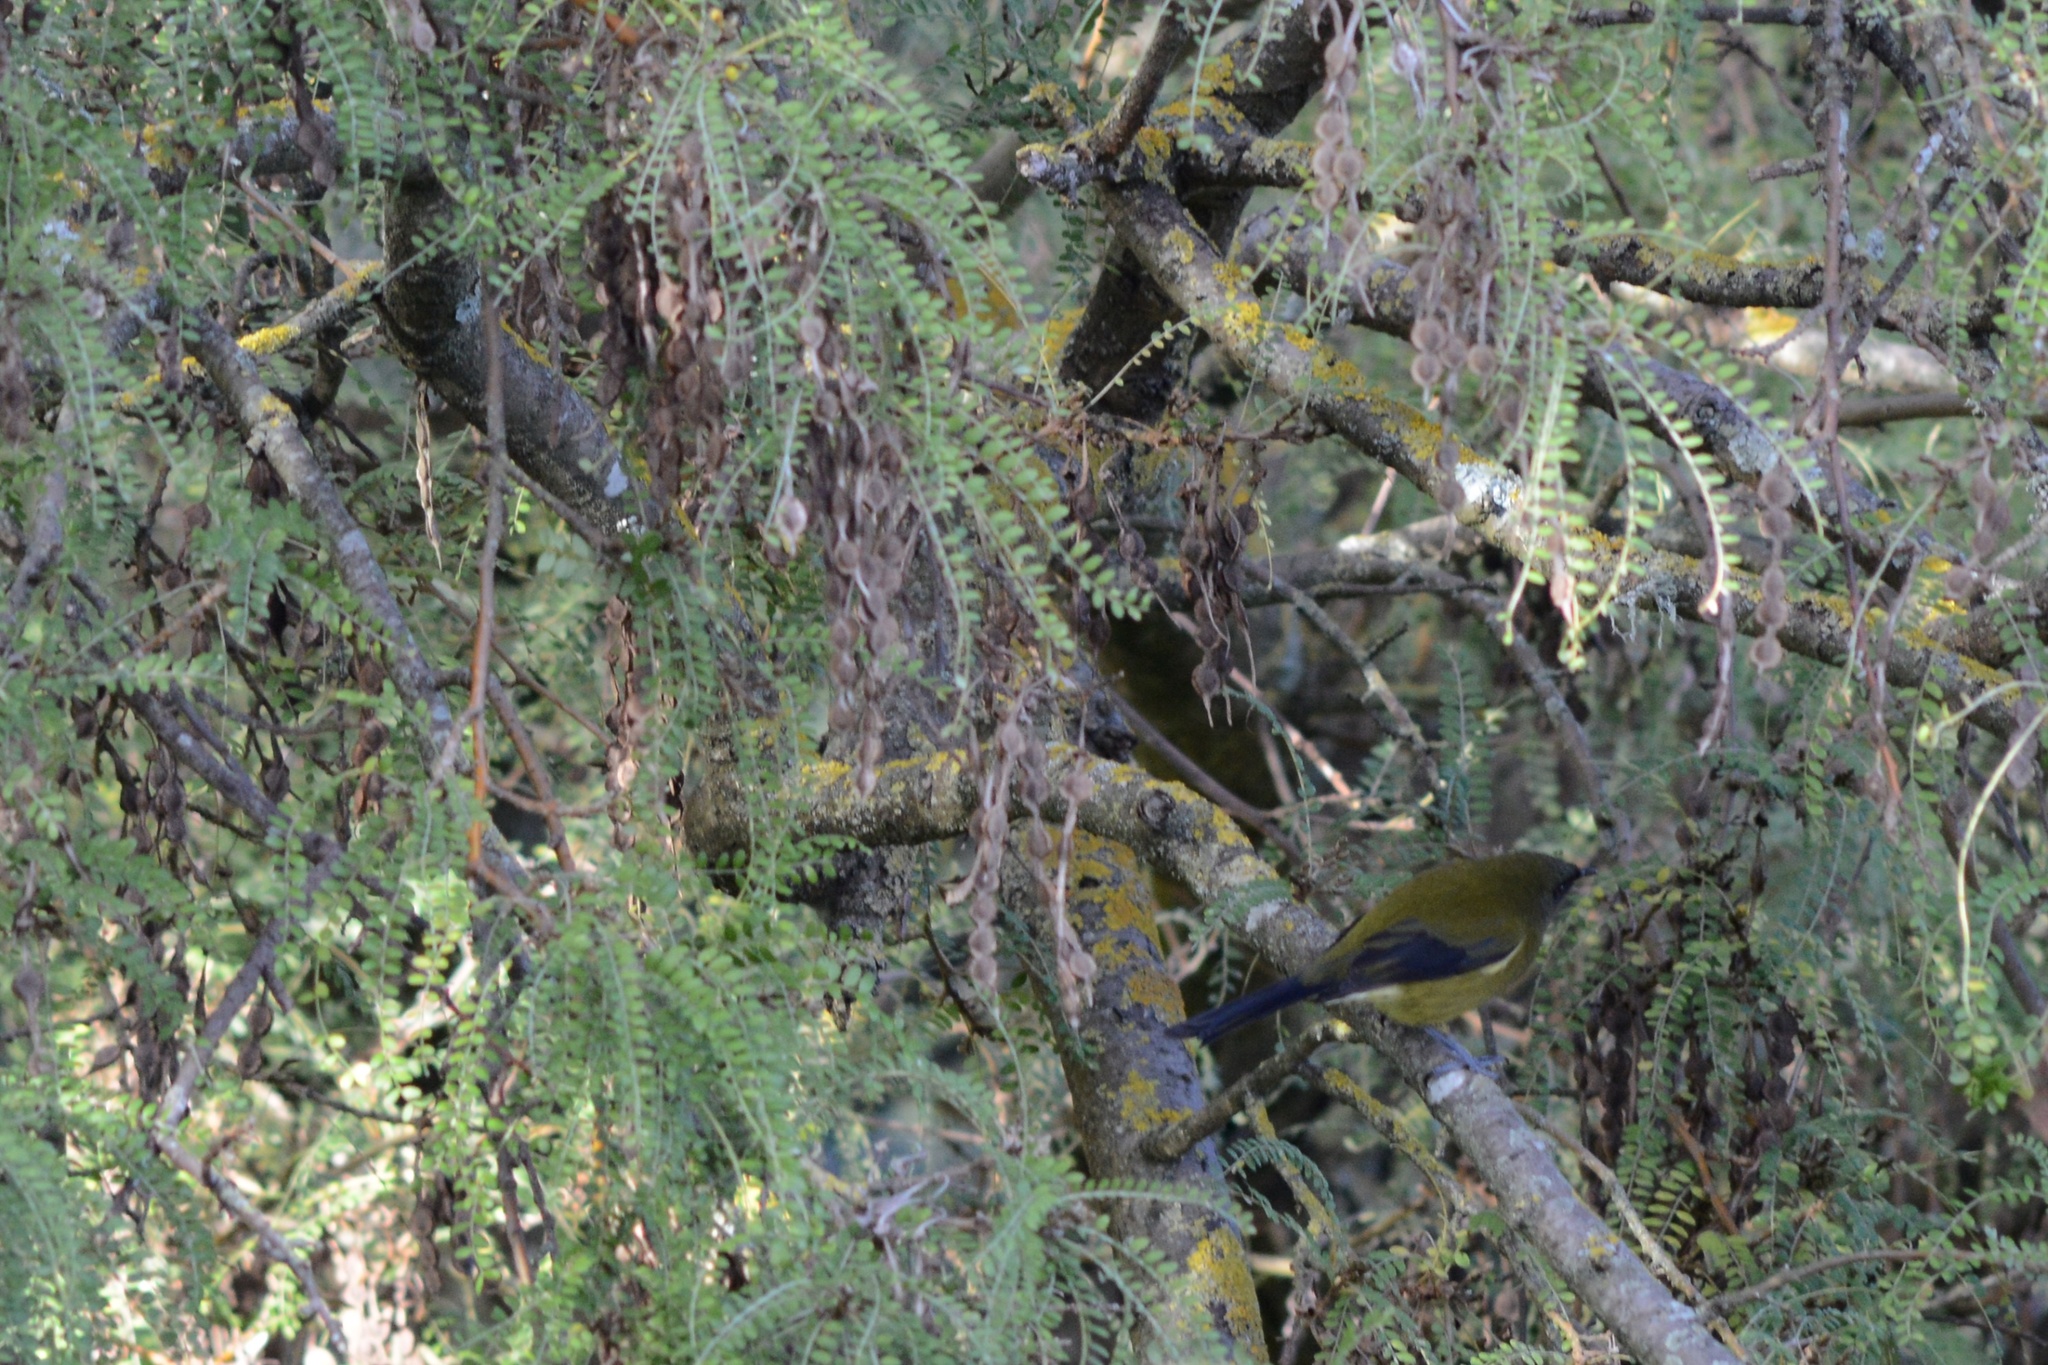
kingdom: Animalia
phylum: Chordata
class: Aves
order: Passeriformes
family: Meliphagidae
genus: Anthornis
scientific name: Anthornis melanura
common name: New zealand bellbird
